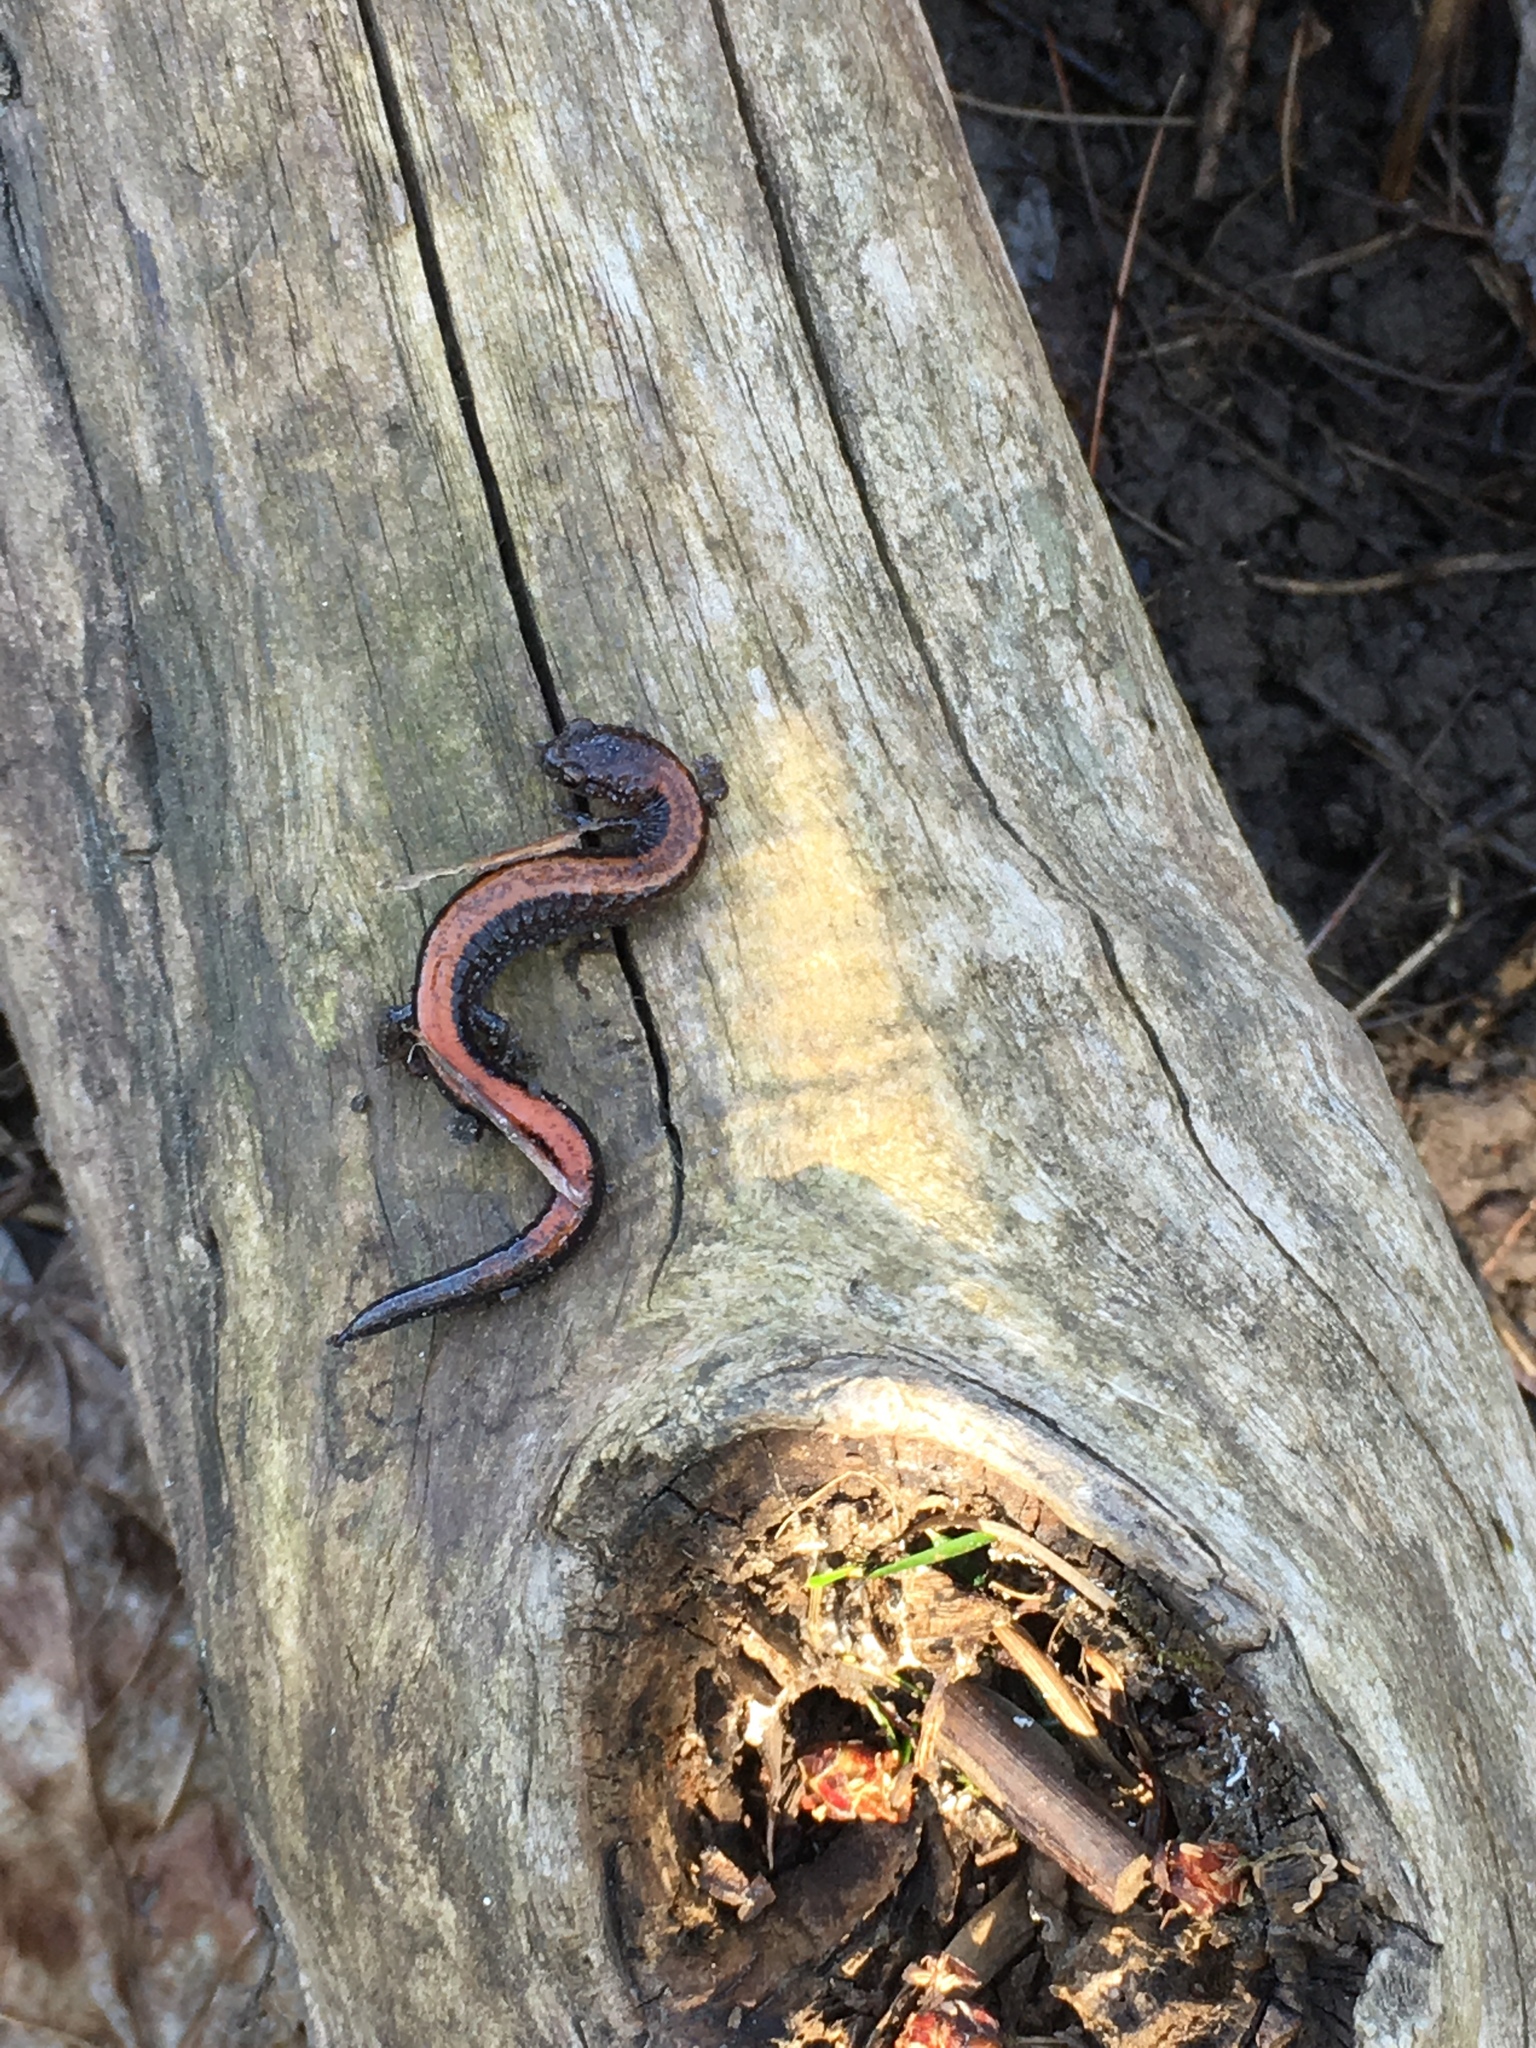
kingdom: Animalia
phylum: Chordata
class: Amphibia
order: Caudata
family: Plethodontidae
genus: Plethodon
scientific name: Plethodon cinereus
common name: Redback salamander
